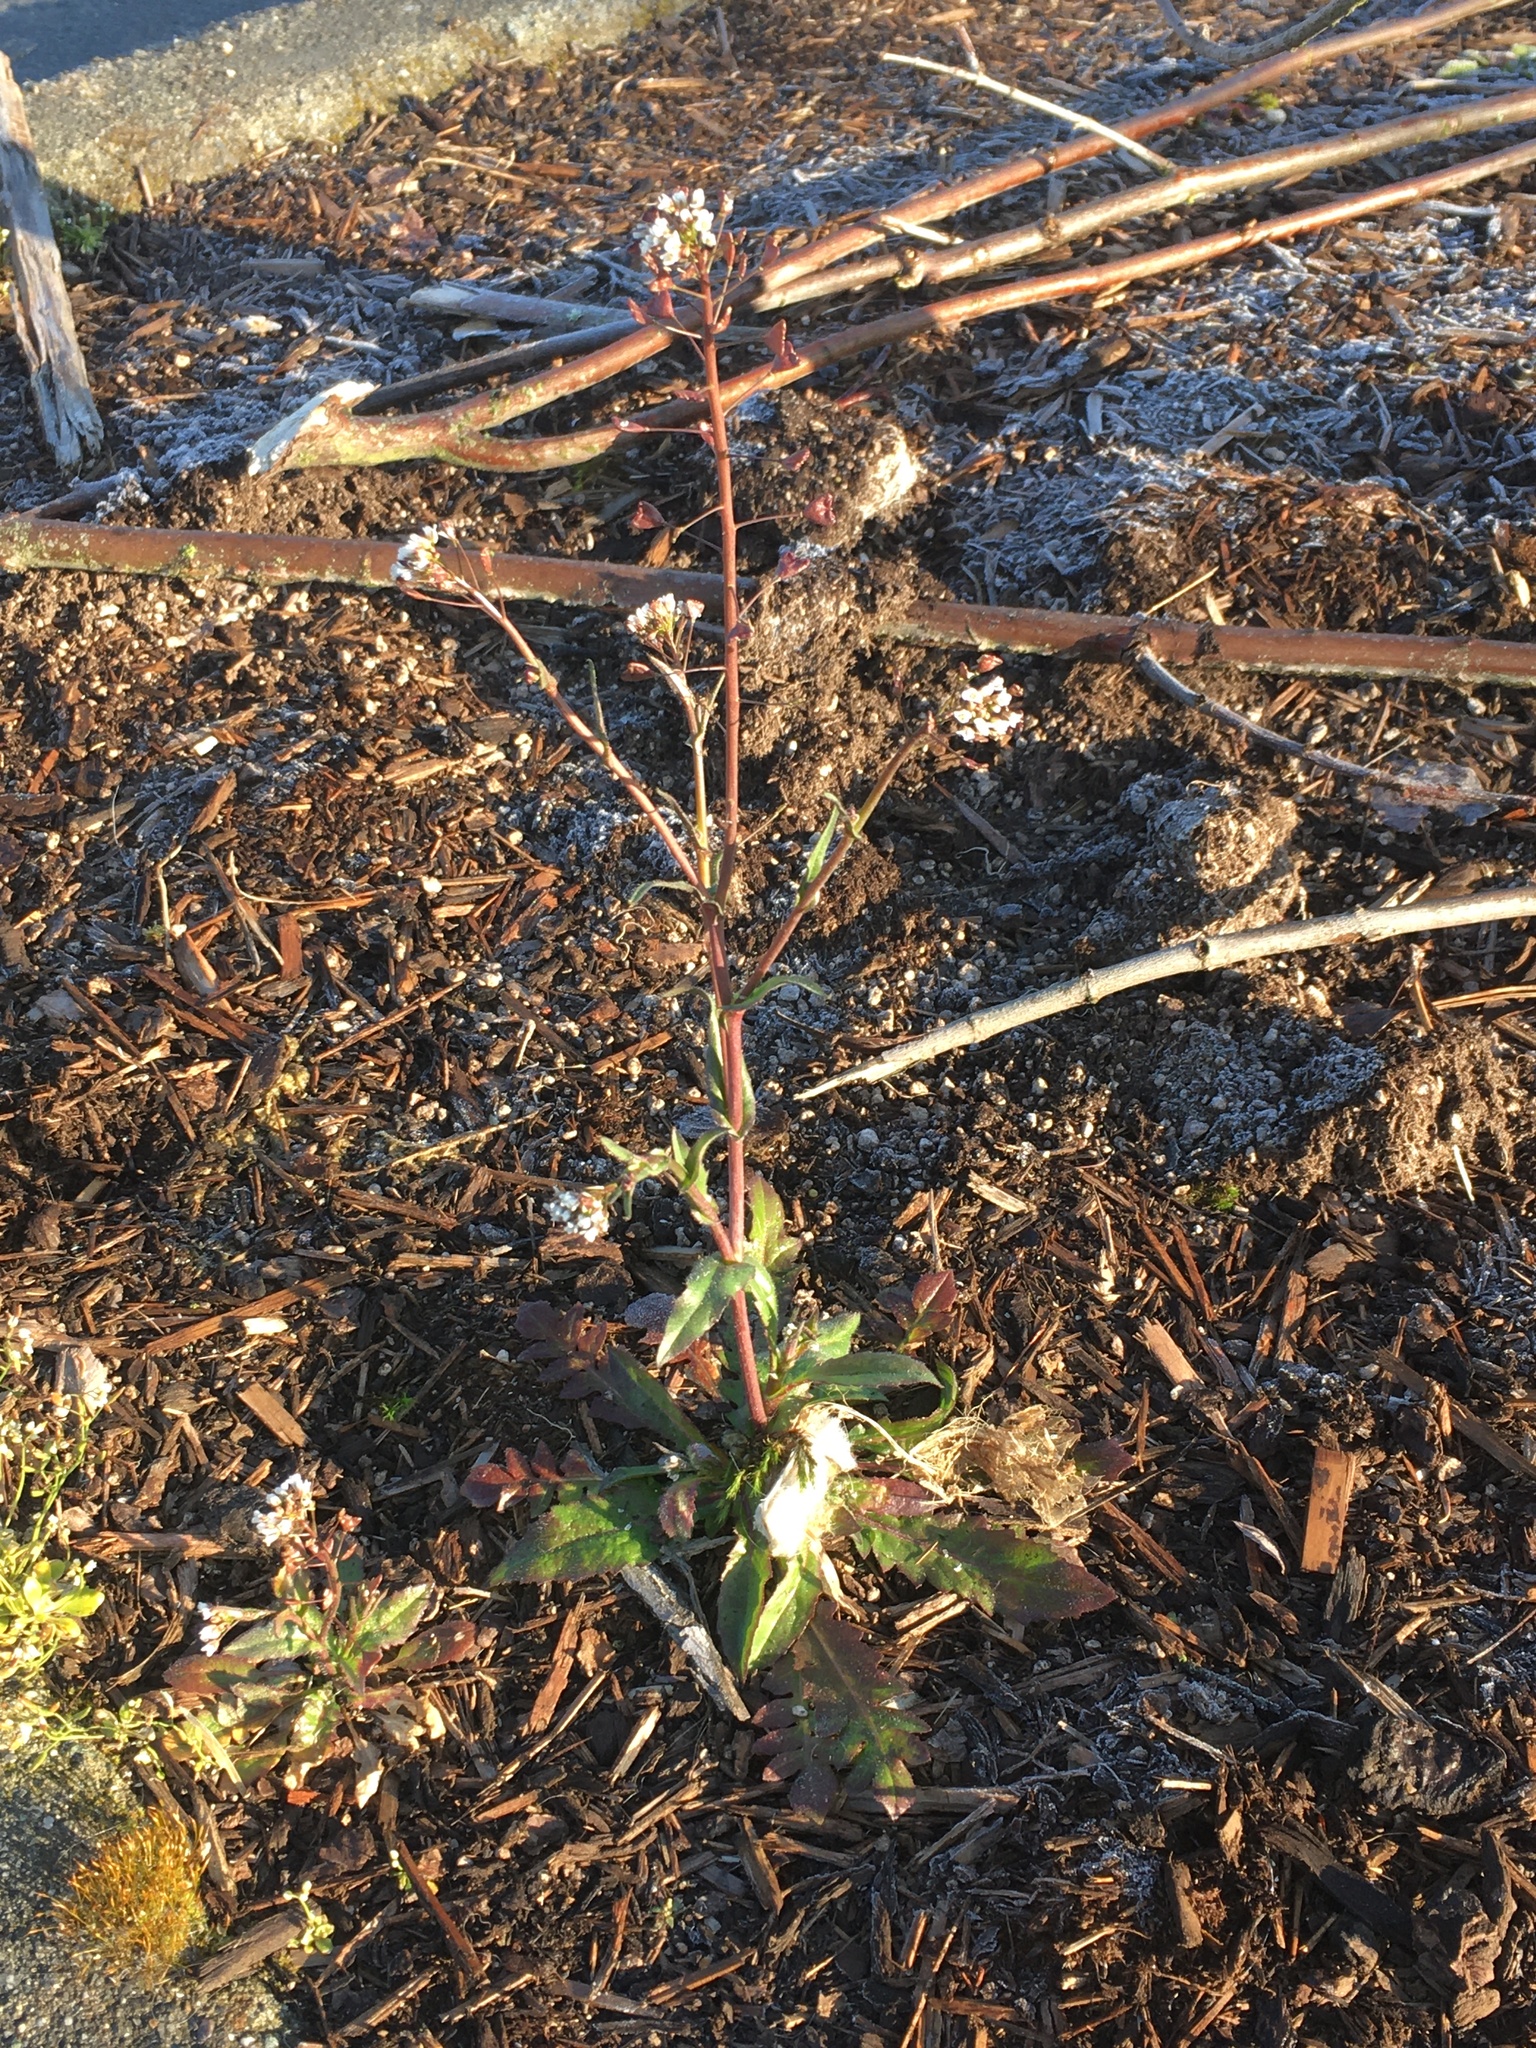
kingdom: Plantae
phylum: Tracheophyta
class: Magnoliopsida
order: Brassicales
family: Brassicaceae
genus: Capsella
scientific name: Capsella bursa-pastoris
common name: Shepherd's purse
